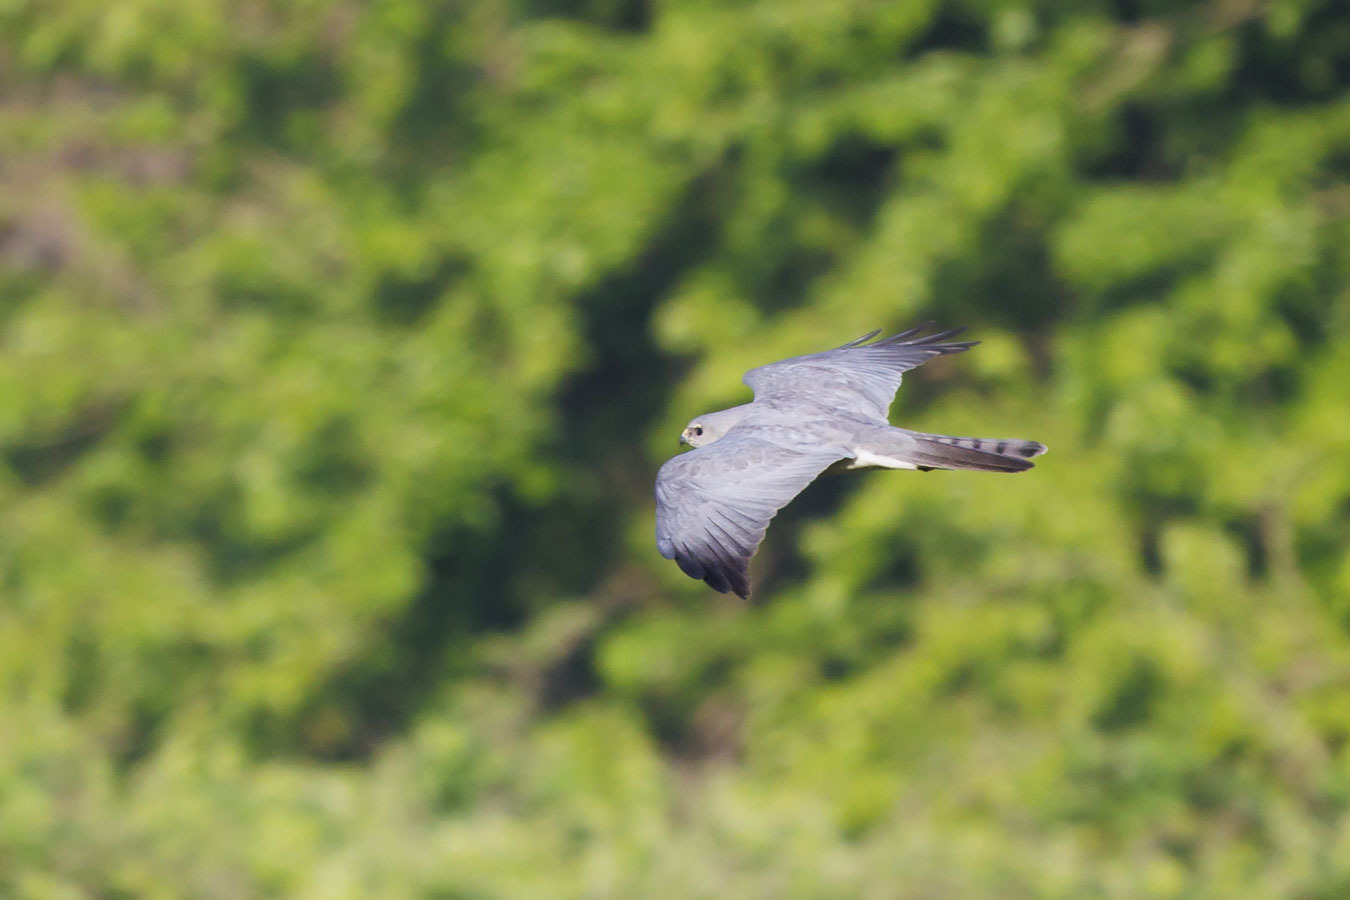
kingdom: Animalia
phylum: Chordata
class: Aves
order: Accipitriformes
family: Accipitridae
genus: Accipiter
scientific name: Accipiter brevipes
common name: Levant sparrowhawk
